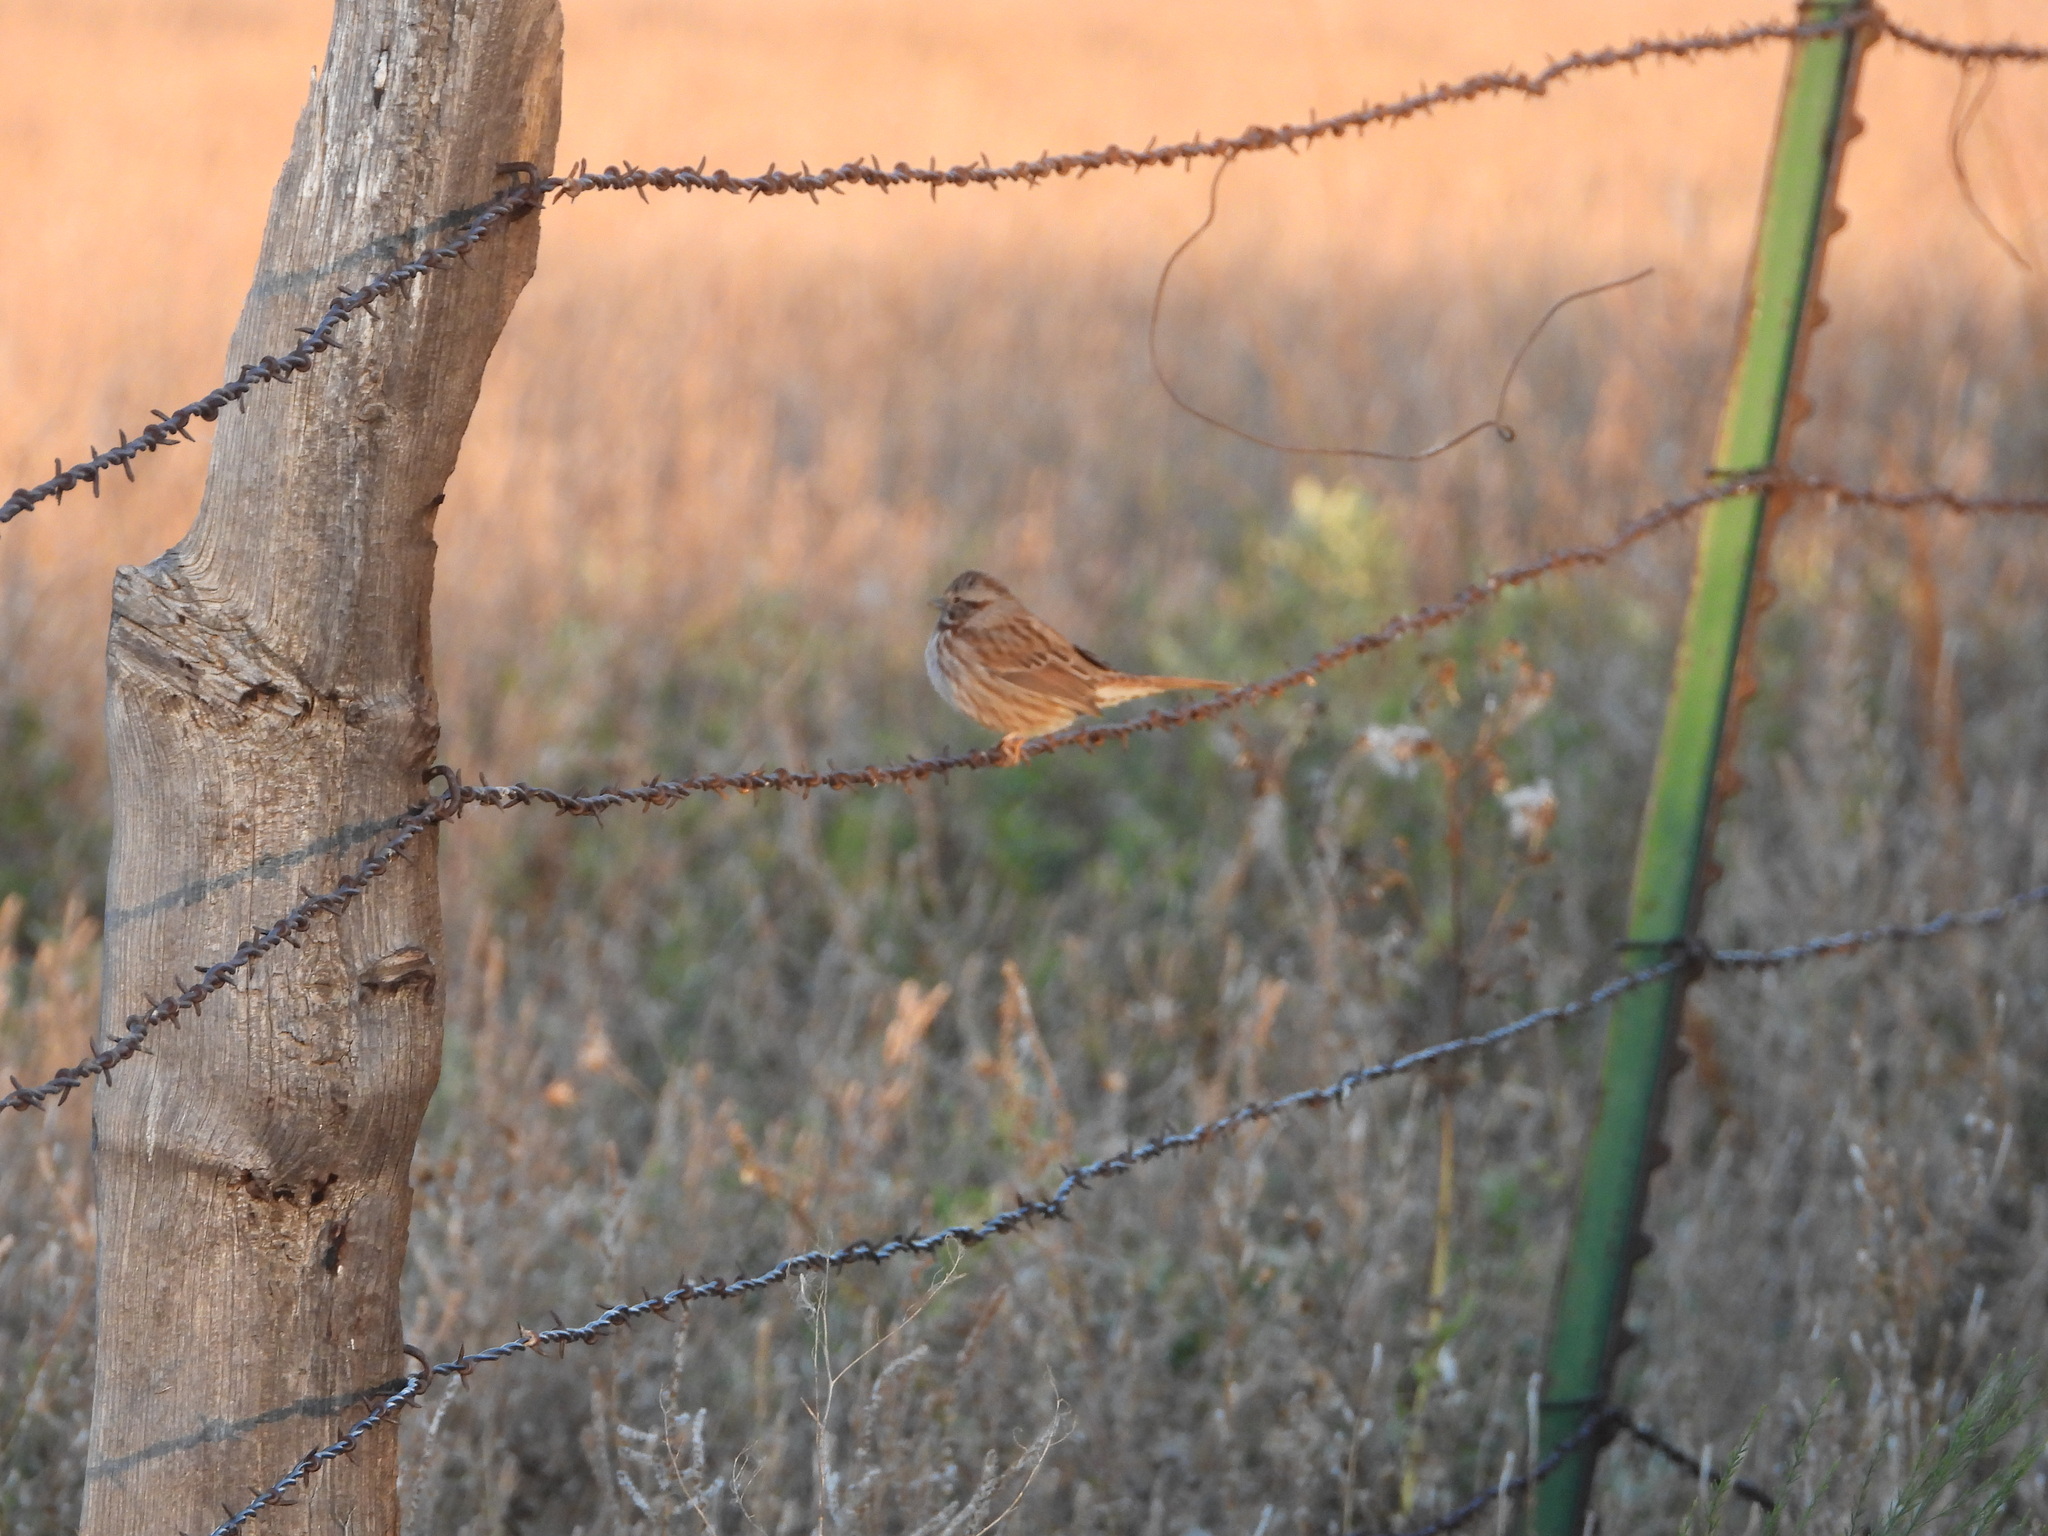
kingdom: Animalia
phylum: Chordata
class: Aves
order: Passeriformes
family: Passerellidae
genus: Melospiza
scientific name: Melospiza melodia
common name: Song sparrow
